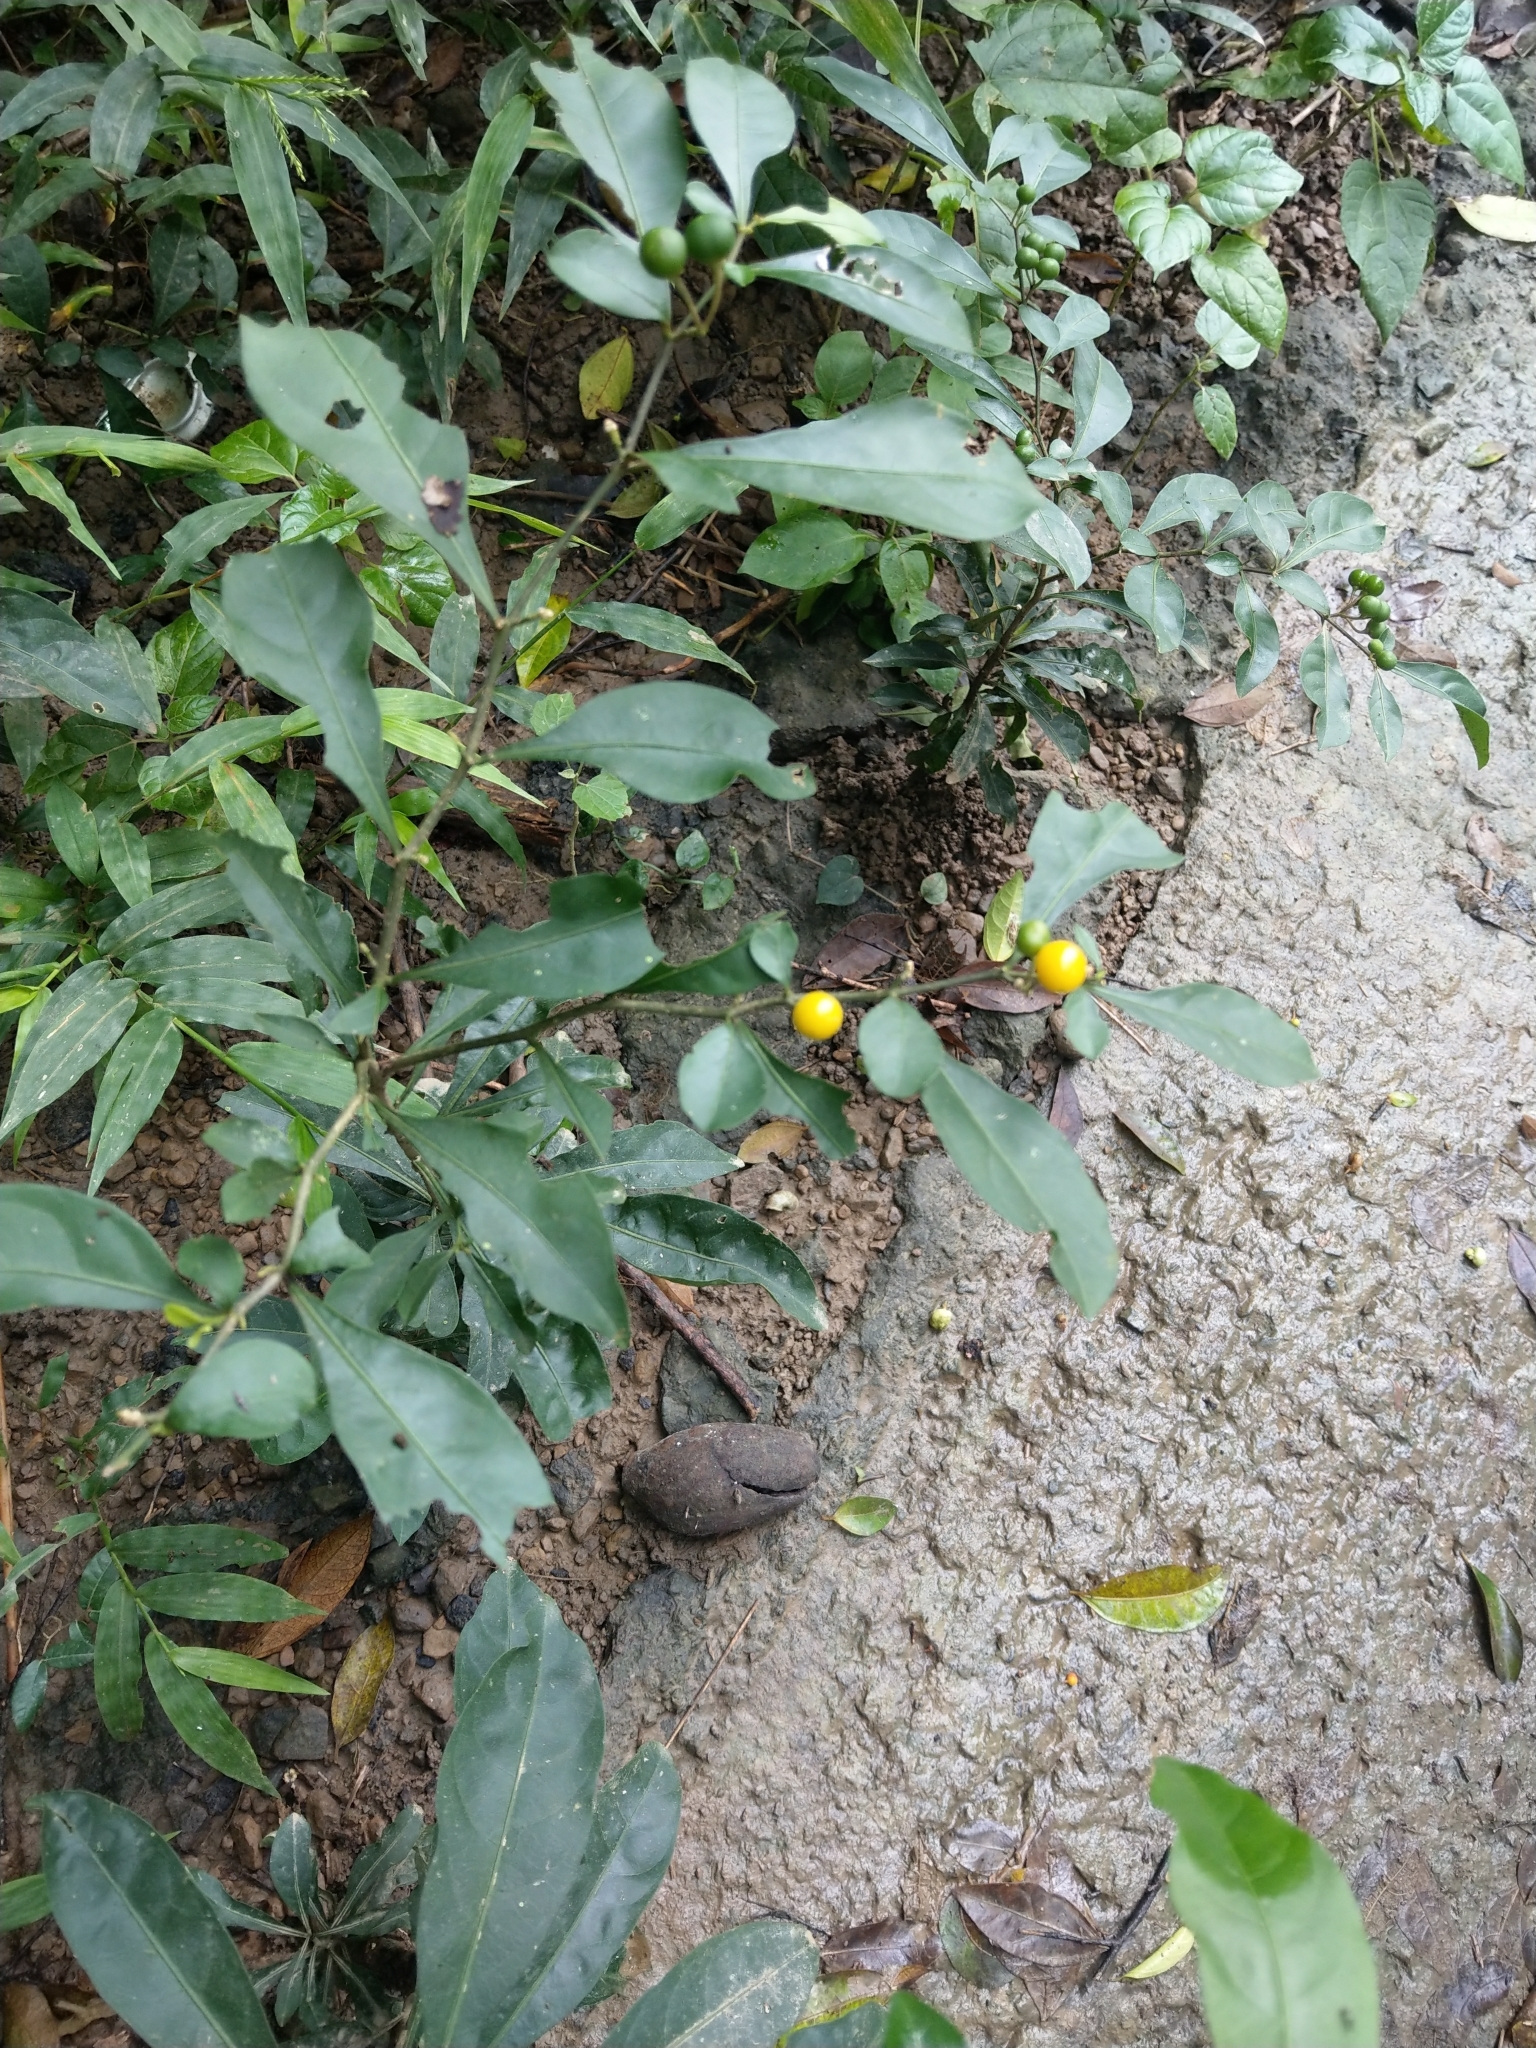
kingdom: Plantae
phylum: Tracheophyta
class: Magnoliopsida
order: Solanales
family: Solanaceae
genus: Solanum
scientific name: Solanum diphyllum
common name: Twoleaf nightshade
